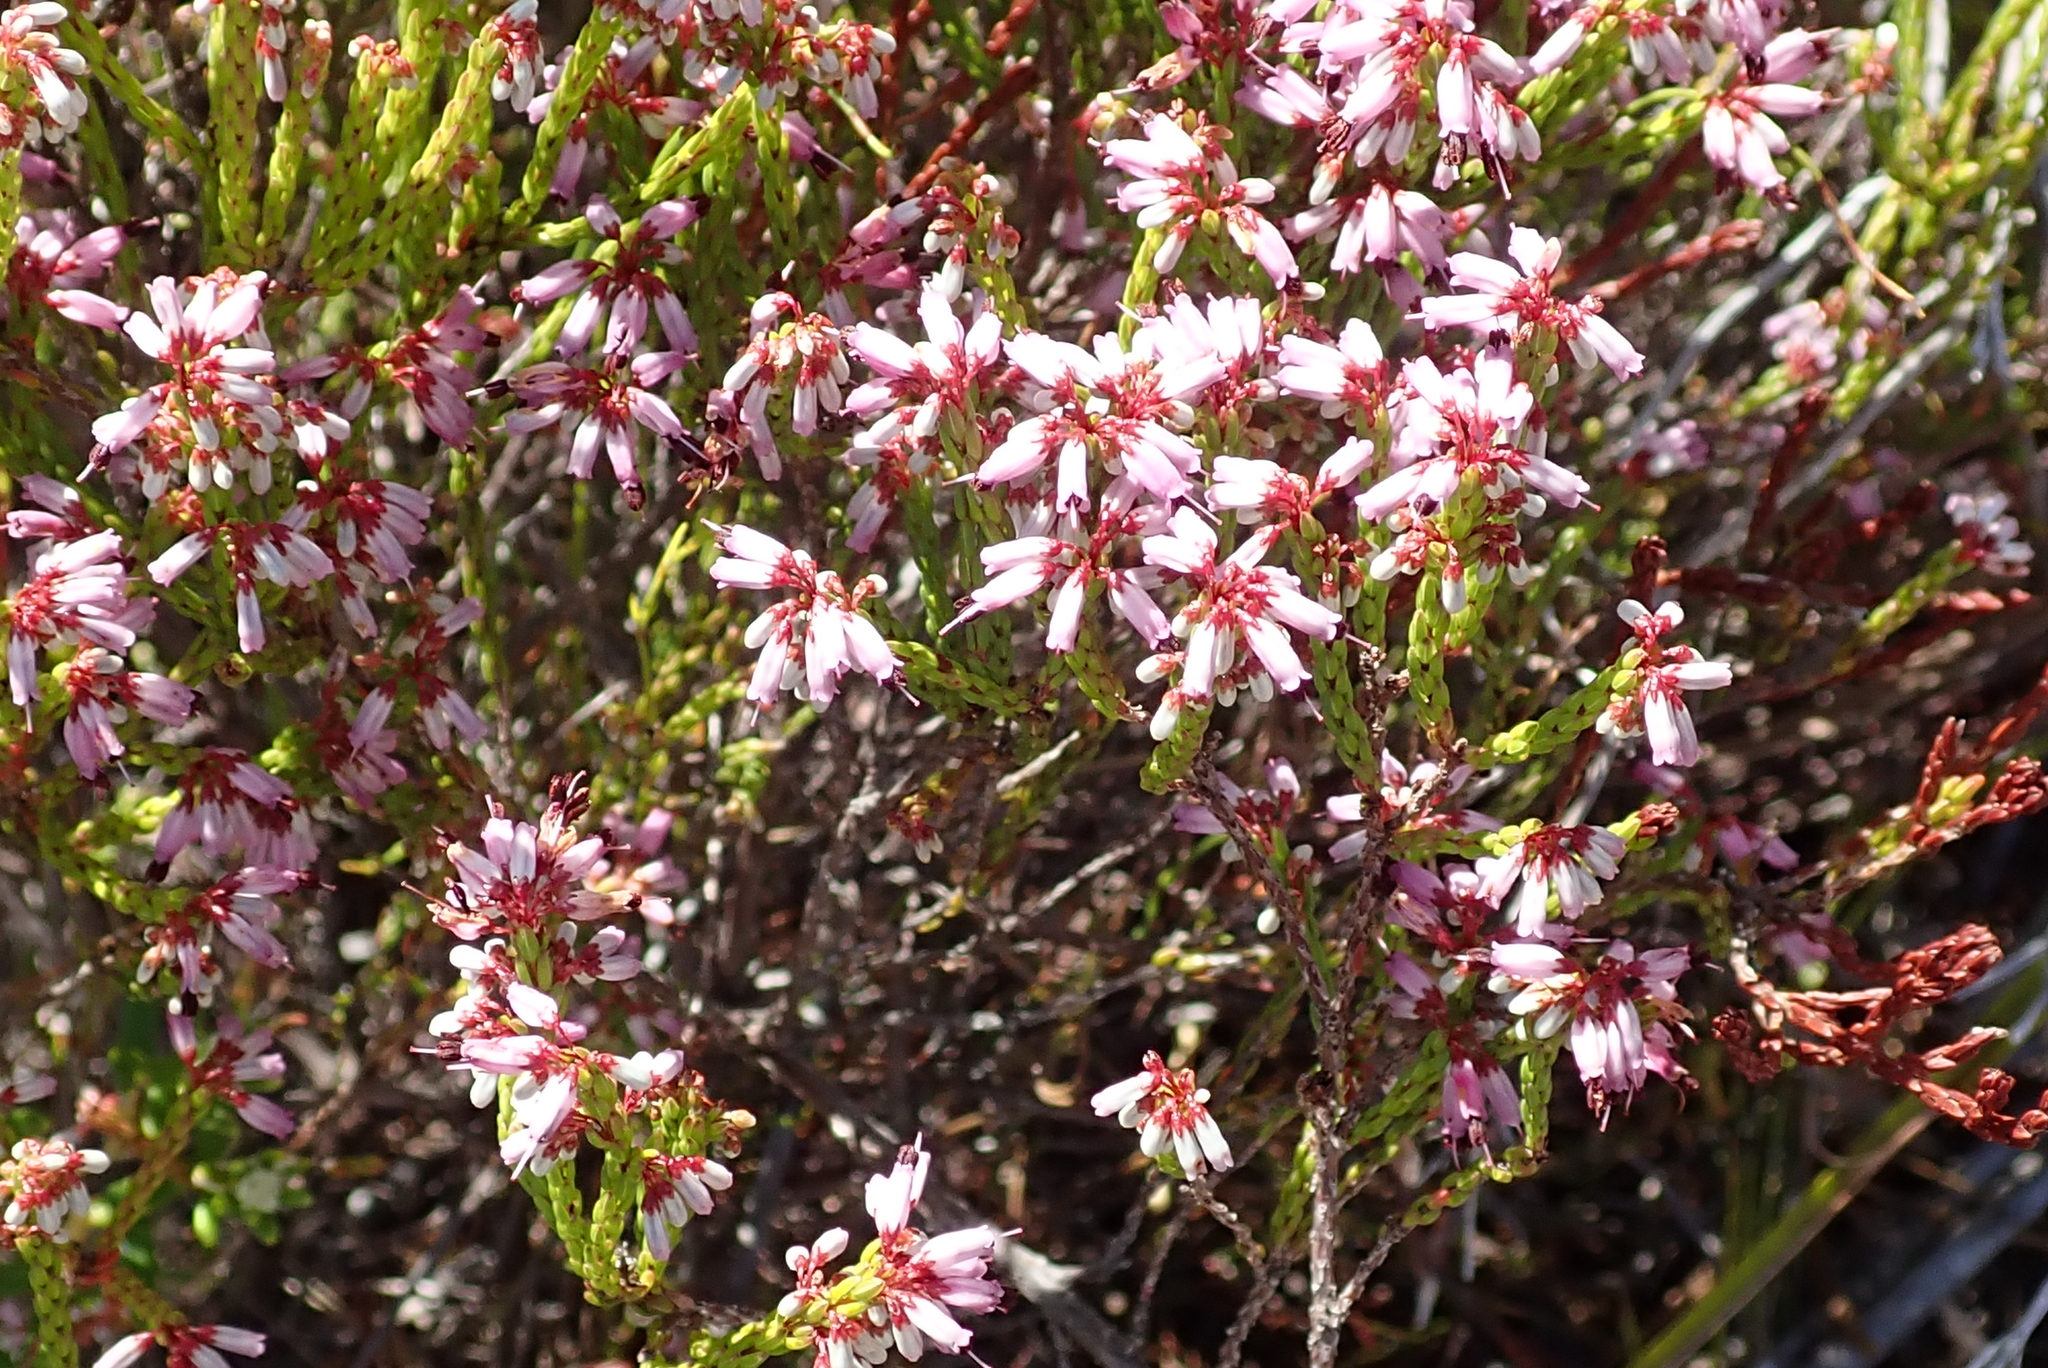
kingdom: Plantae
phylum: Tracheophyta
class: Magnoliopsida
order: Ericales
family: Ericaceae
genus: Erica
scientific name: Erica equisetifolia
